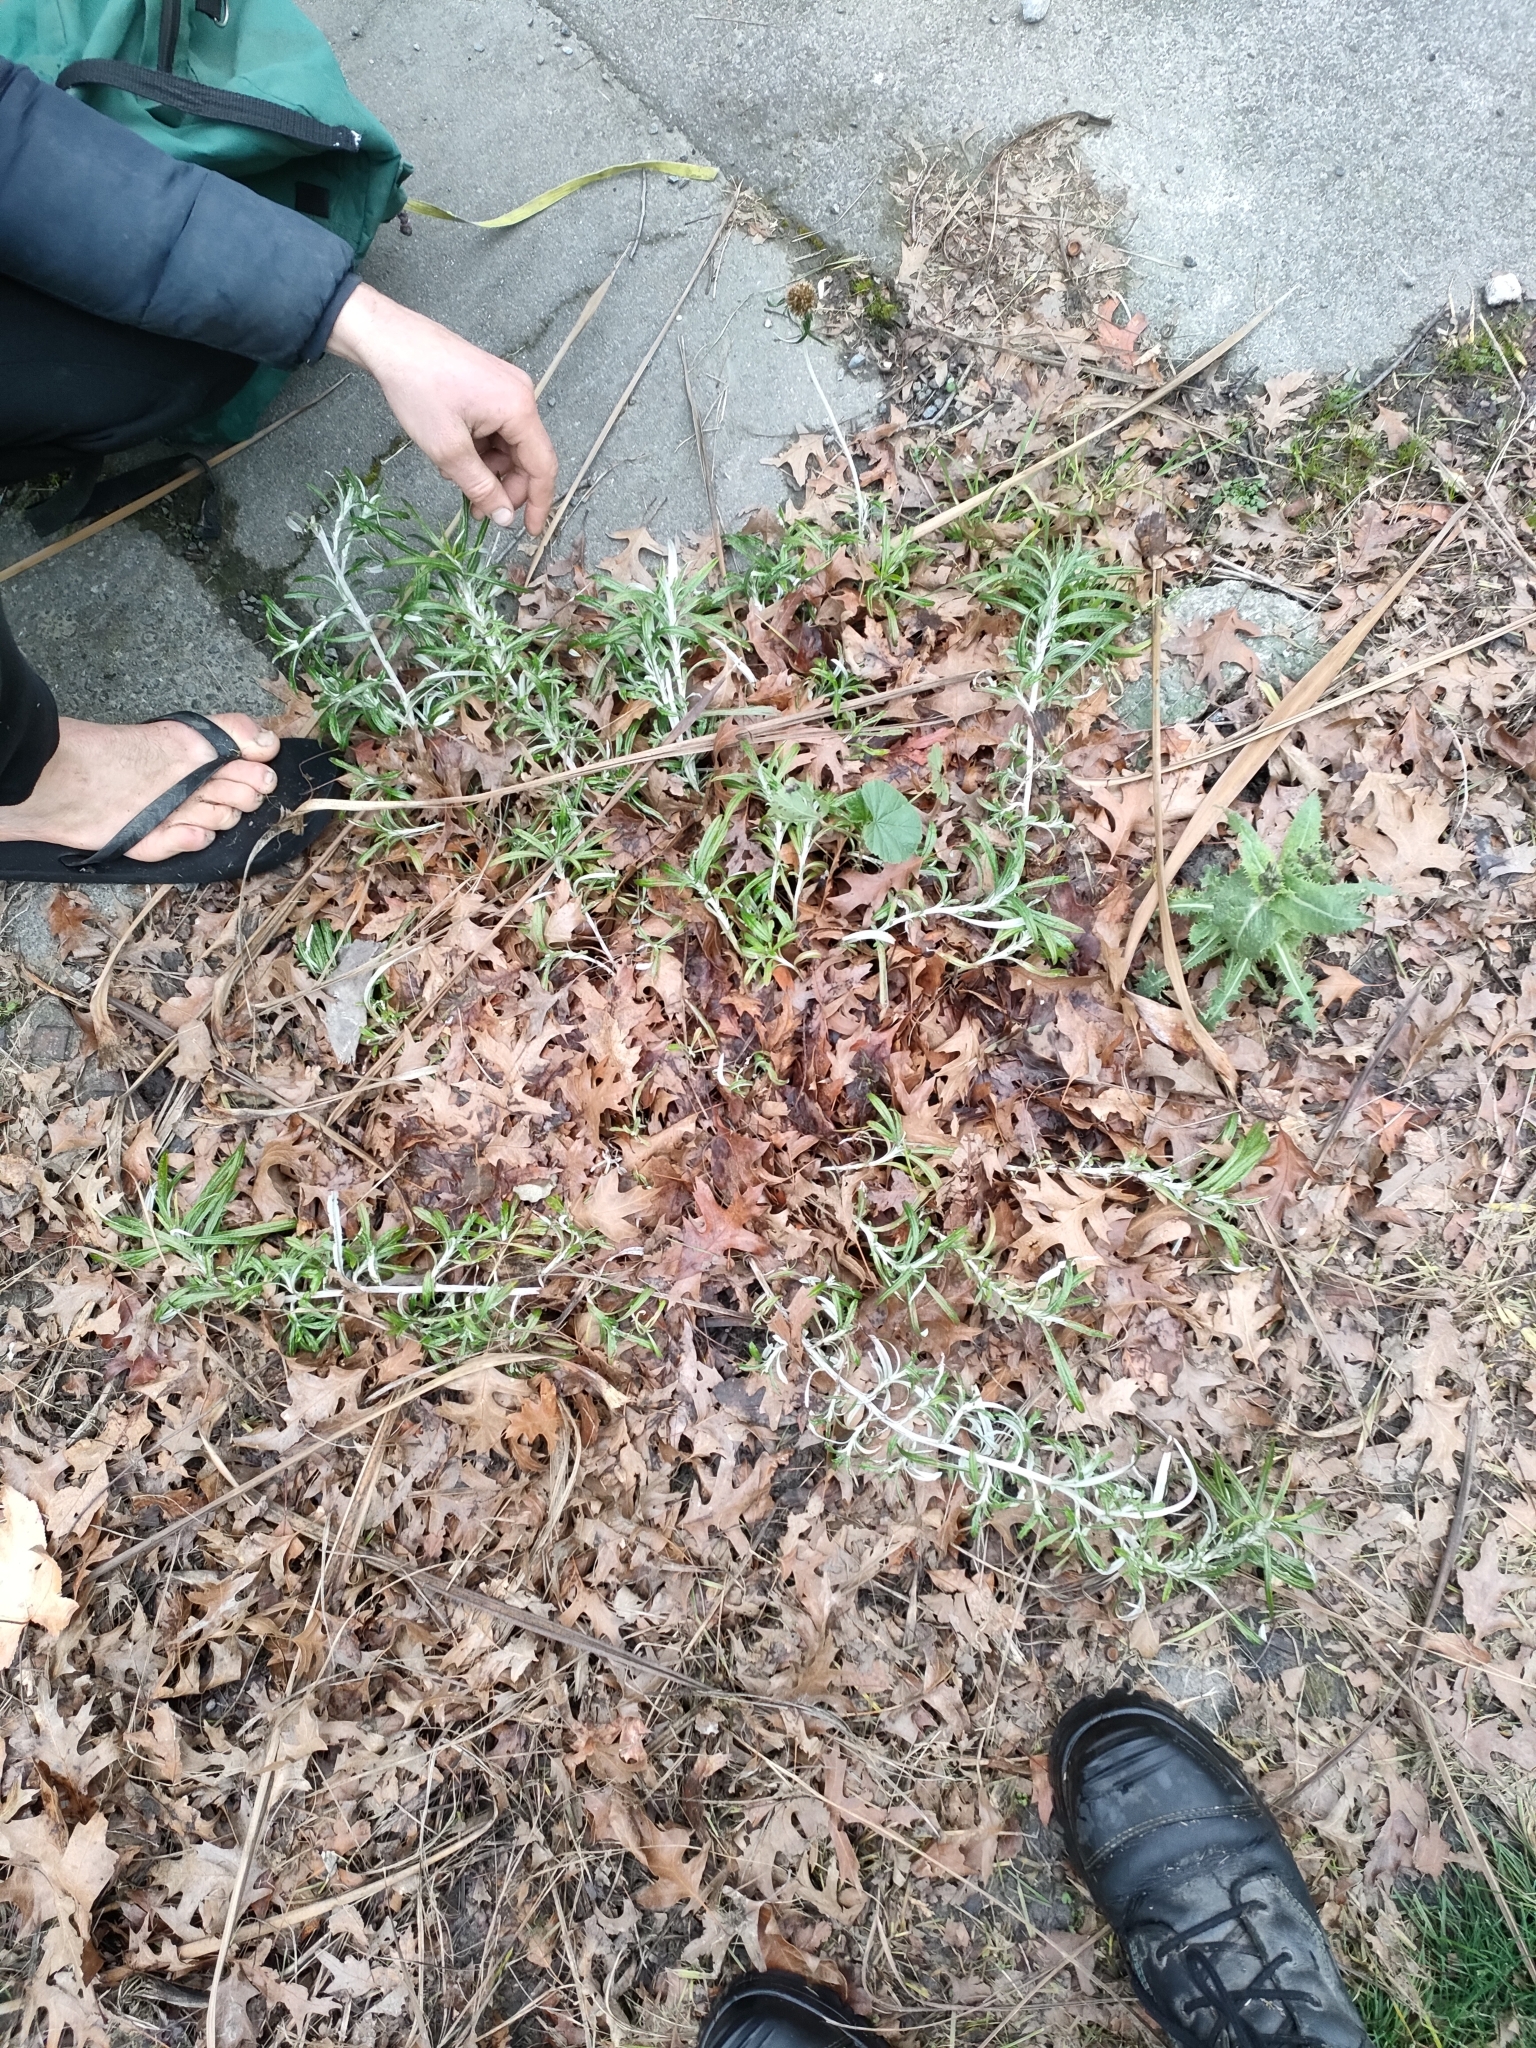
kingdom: Plantae
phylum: Tracheophyta
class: Magnoliopsida
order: Asterales
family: Asteraceae
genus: Euchiton
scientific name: Euchiton sphaericus
